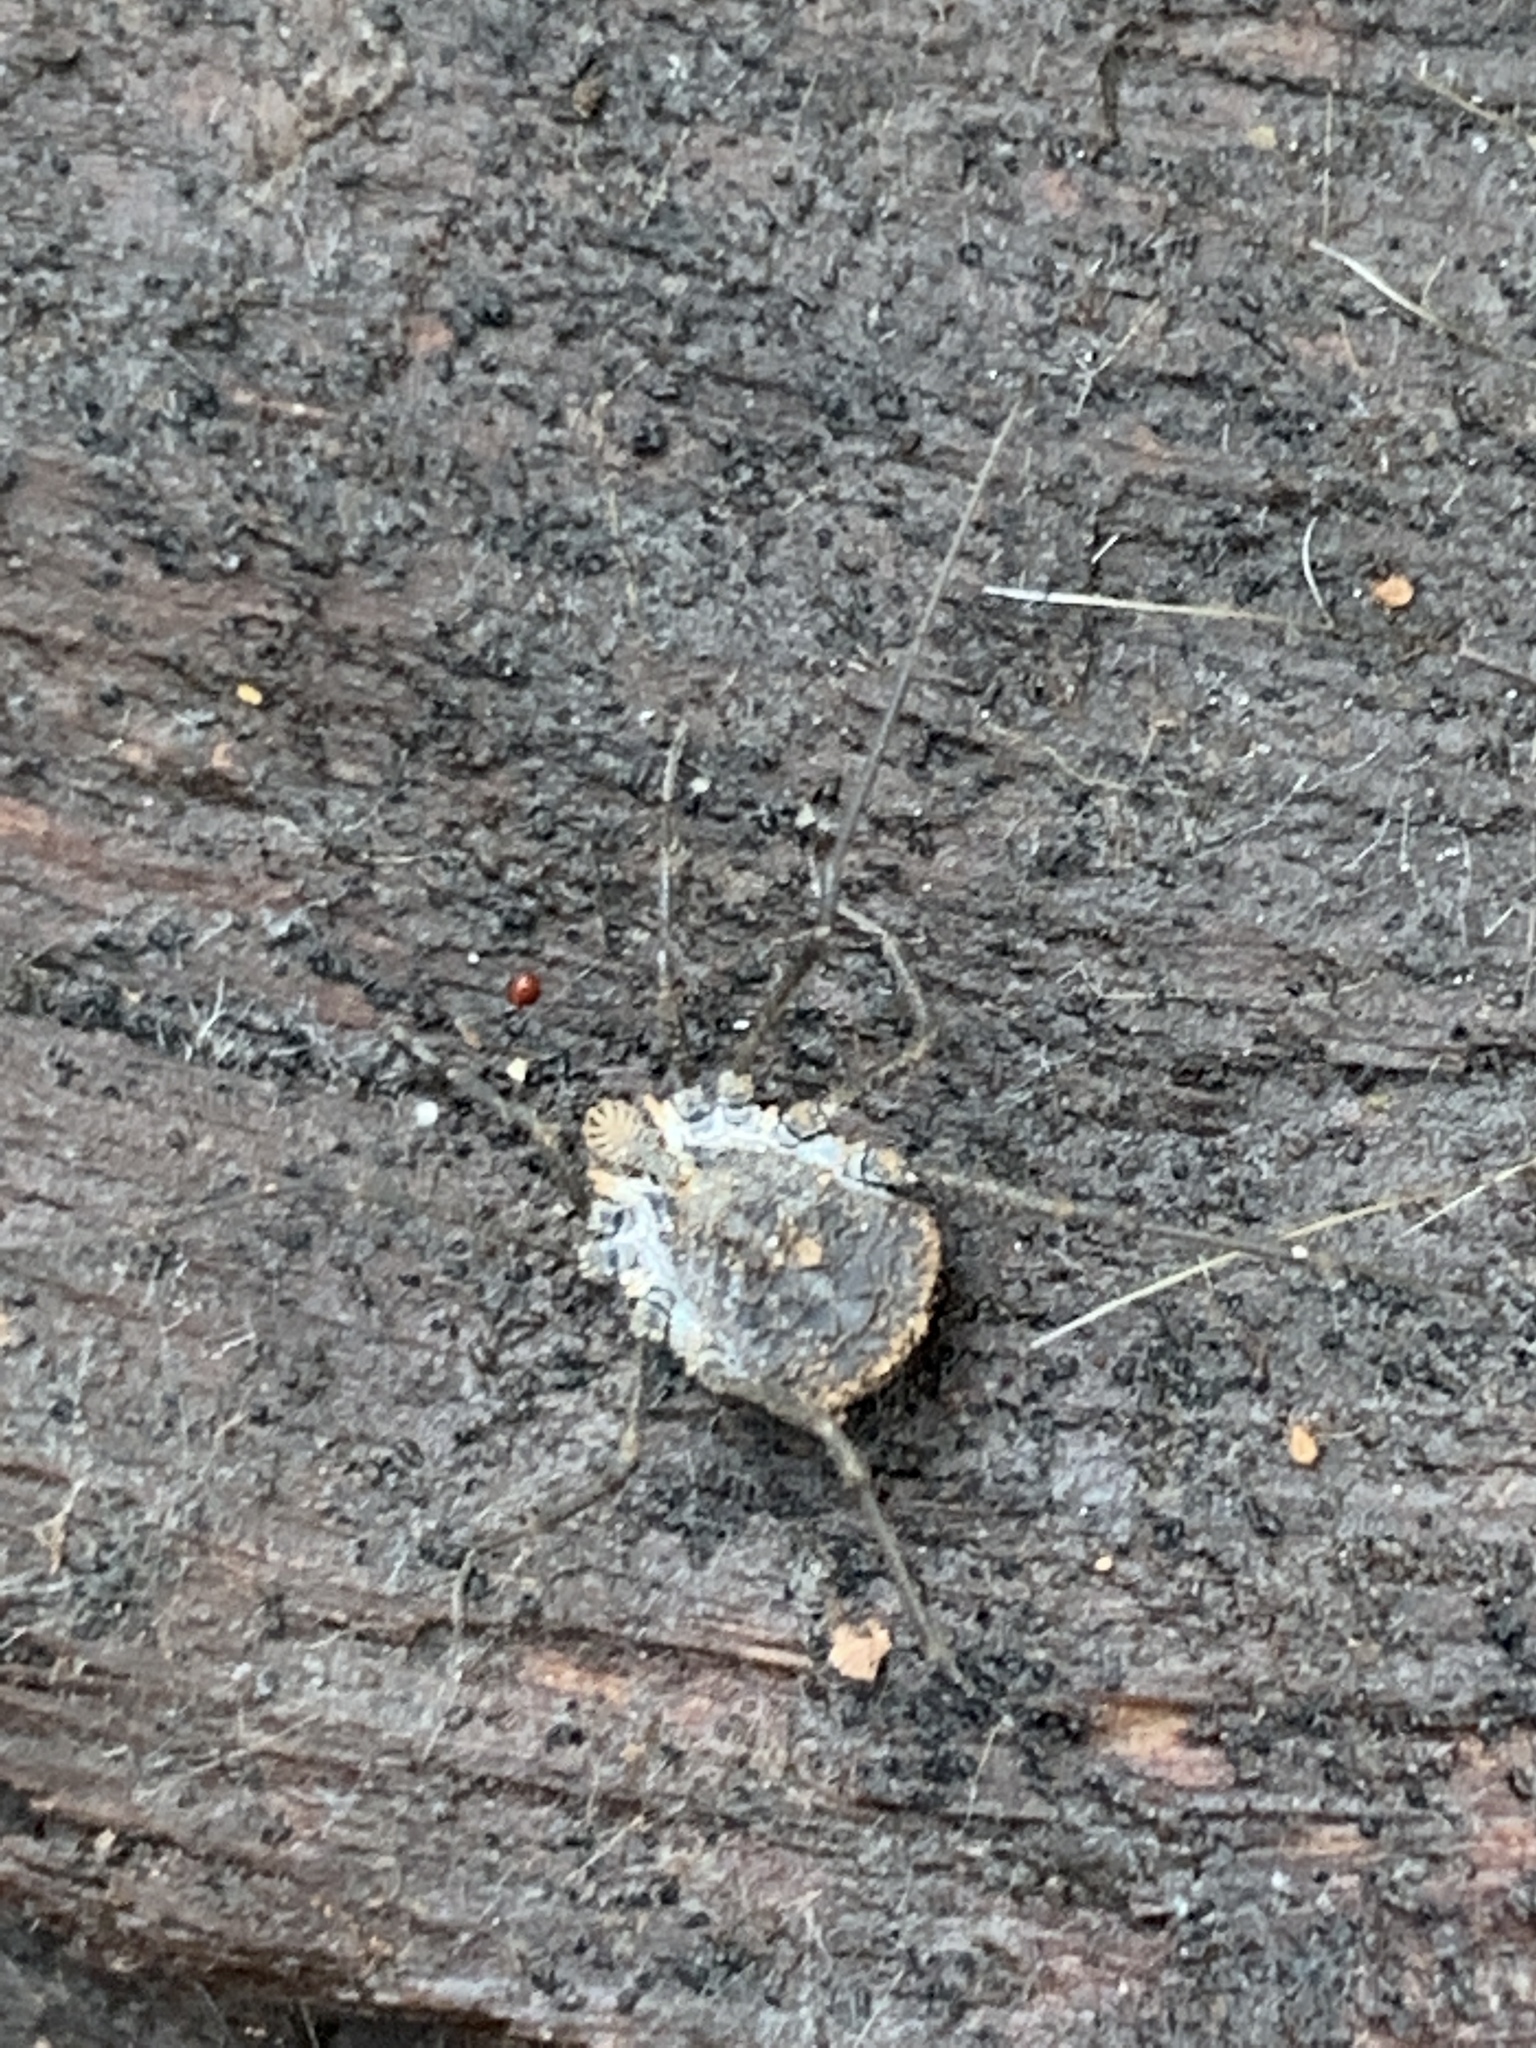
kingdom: Animalia
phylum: Arthropoda
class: Arachnida
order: Opiliones
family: Nemastomatidae
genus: Ortholasma
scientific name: Ortholasma rugosum
